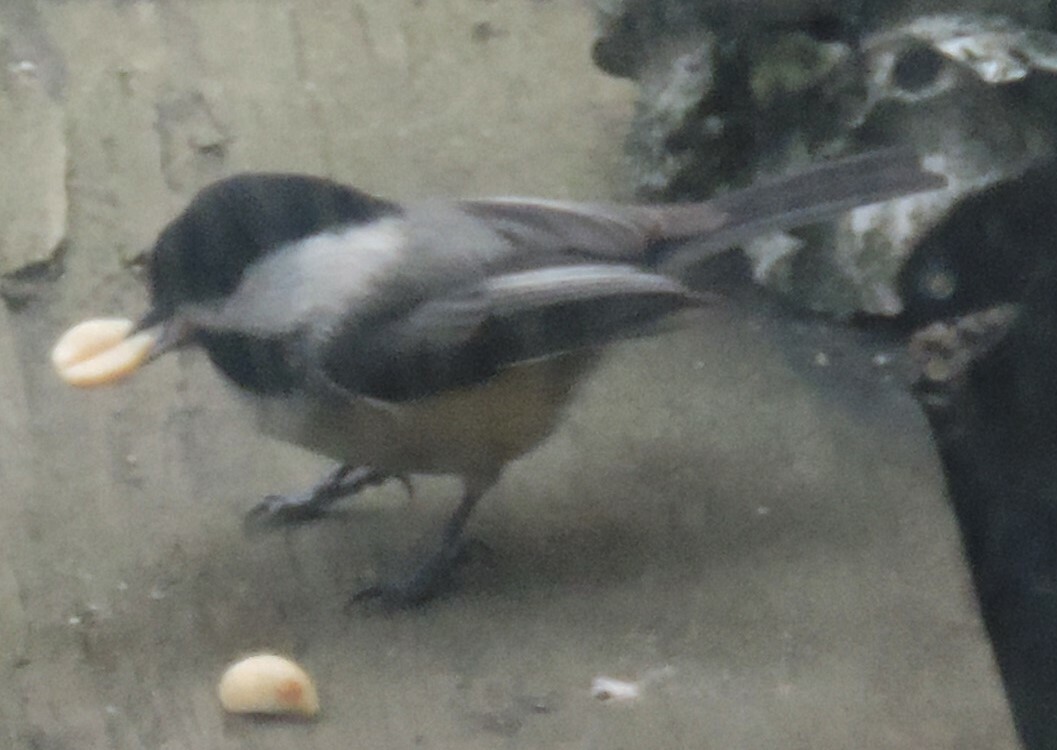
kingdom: Animalia
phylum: Chordata
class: Aves
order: Passeriformes
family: Paridae
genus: Poecile
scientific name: Poecile atricapillus
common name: Black-capped chickadee
